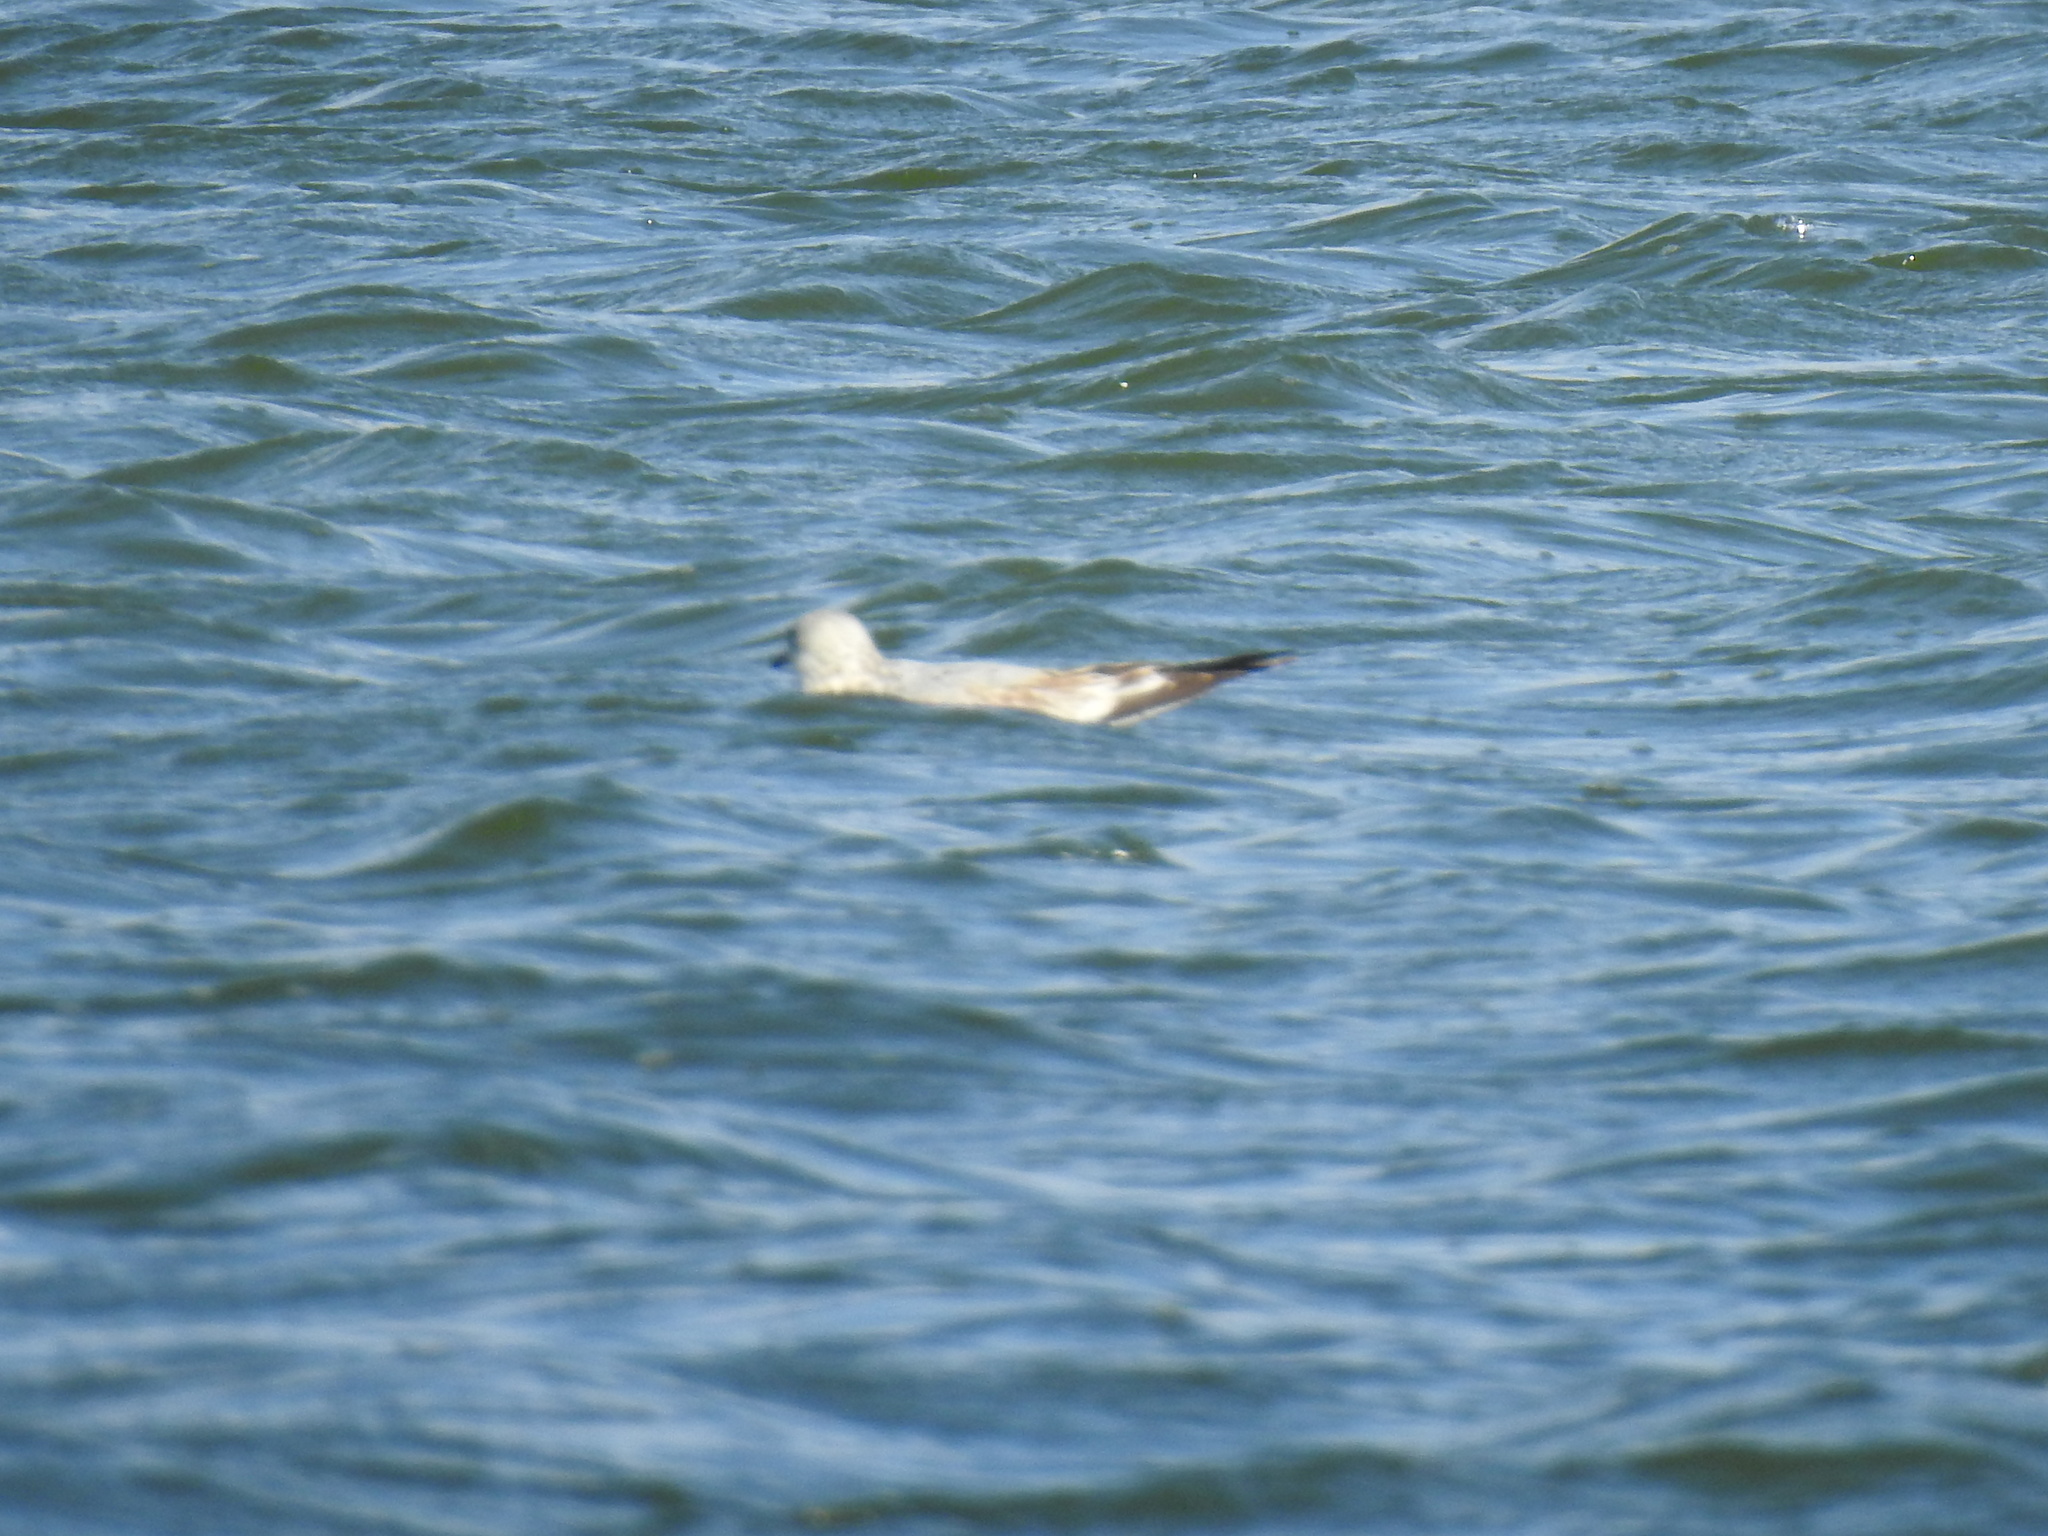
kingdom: Animalia
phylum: Chordata
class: Aves
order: Charadriiformes
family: Laridae
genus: Larus
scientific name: Larus delawarensis
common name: Ring-billed gull
